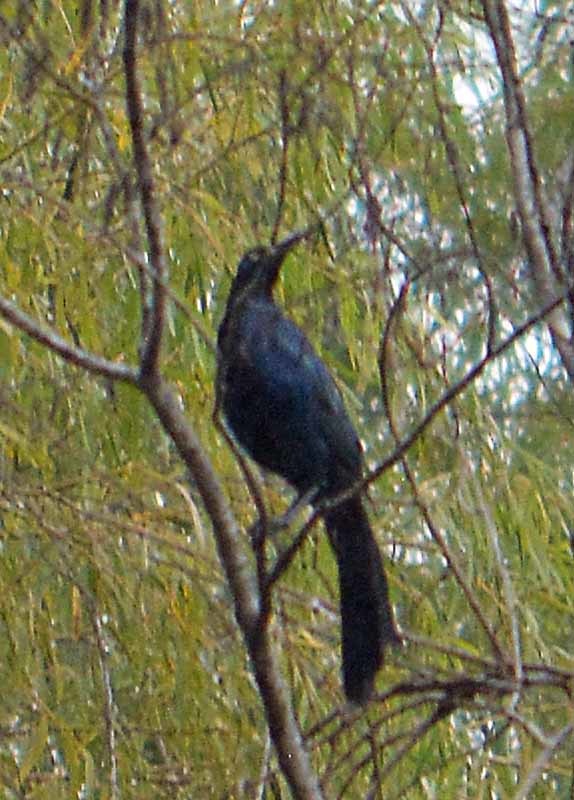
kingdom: Animalia
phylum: Chordata
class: Aves
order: Passeriformes
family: Icteridae
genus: Quiscalus
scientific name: Quiscalus mexicanus
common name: Great-tailed grackle
